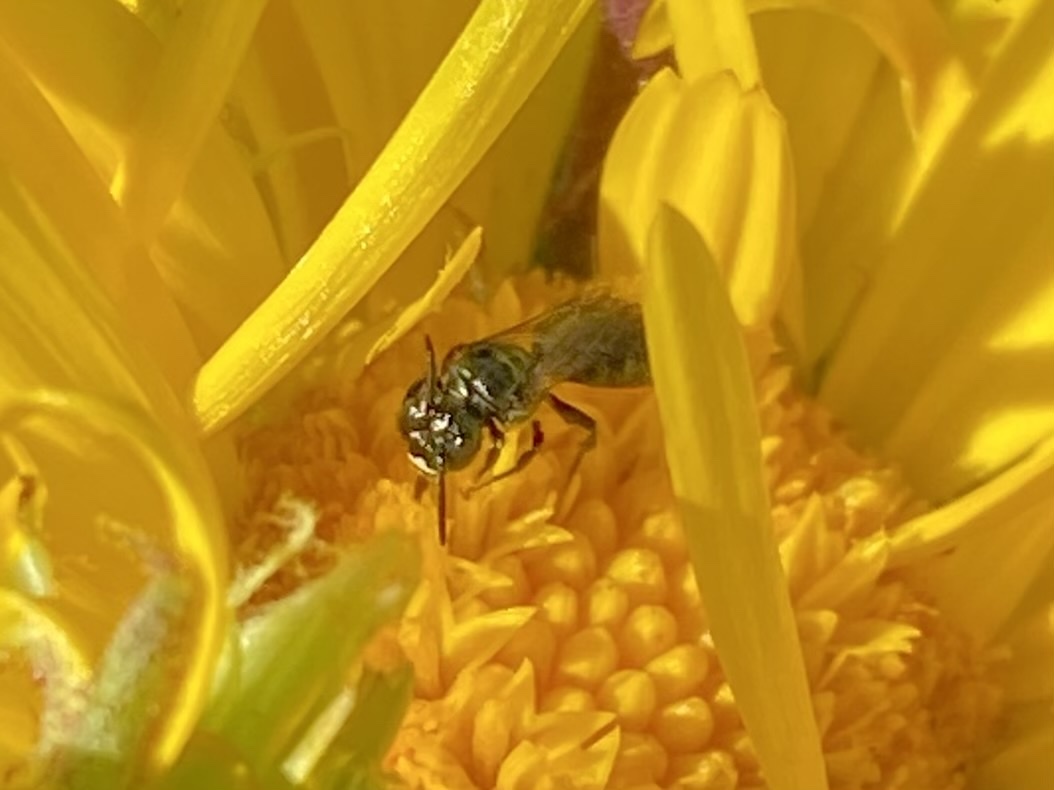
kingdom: Animalia
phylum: Arthropoda
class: Insecta
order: Hymenoptera
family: Apidae
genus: Zadontomerus
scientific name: Zadontomerus
